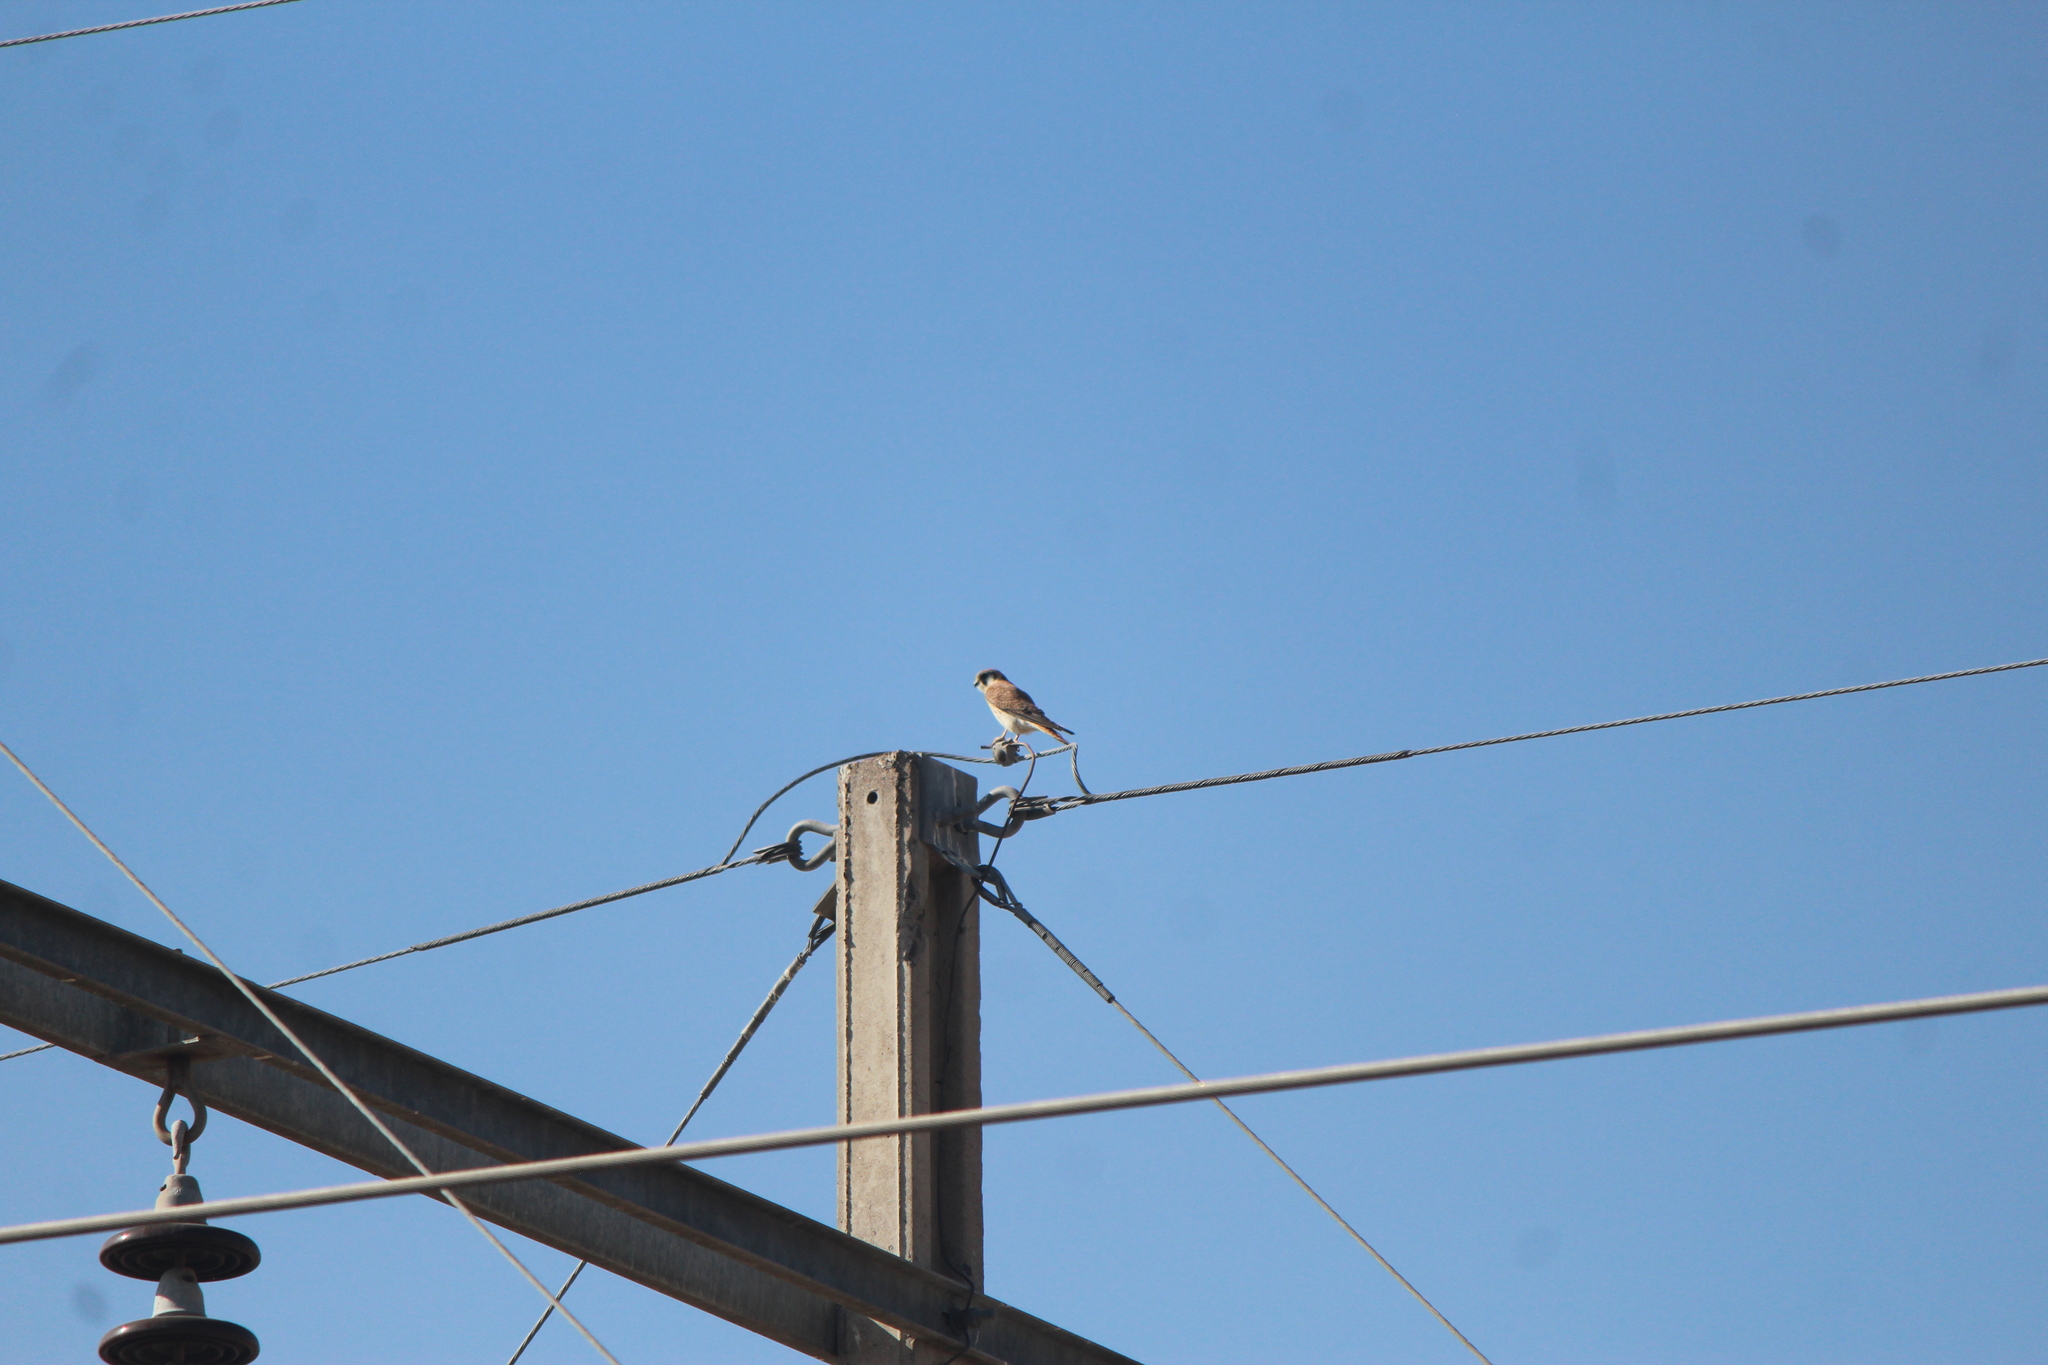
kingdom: Animalia
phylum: Chordata
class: Aves
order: Falconiformes
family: Falconidae
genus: Falco
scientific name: Falco sparverius
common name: American kestrel
